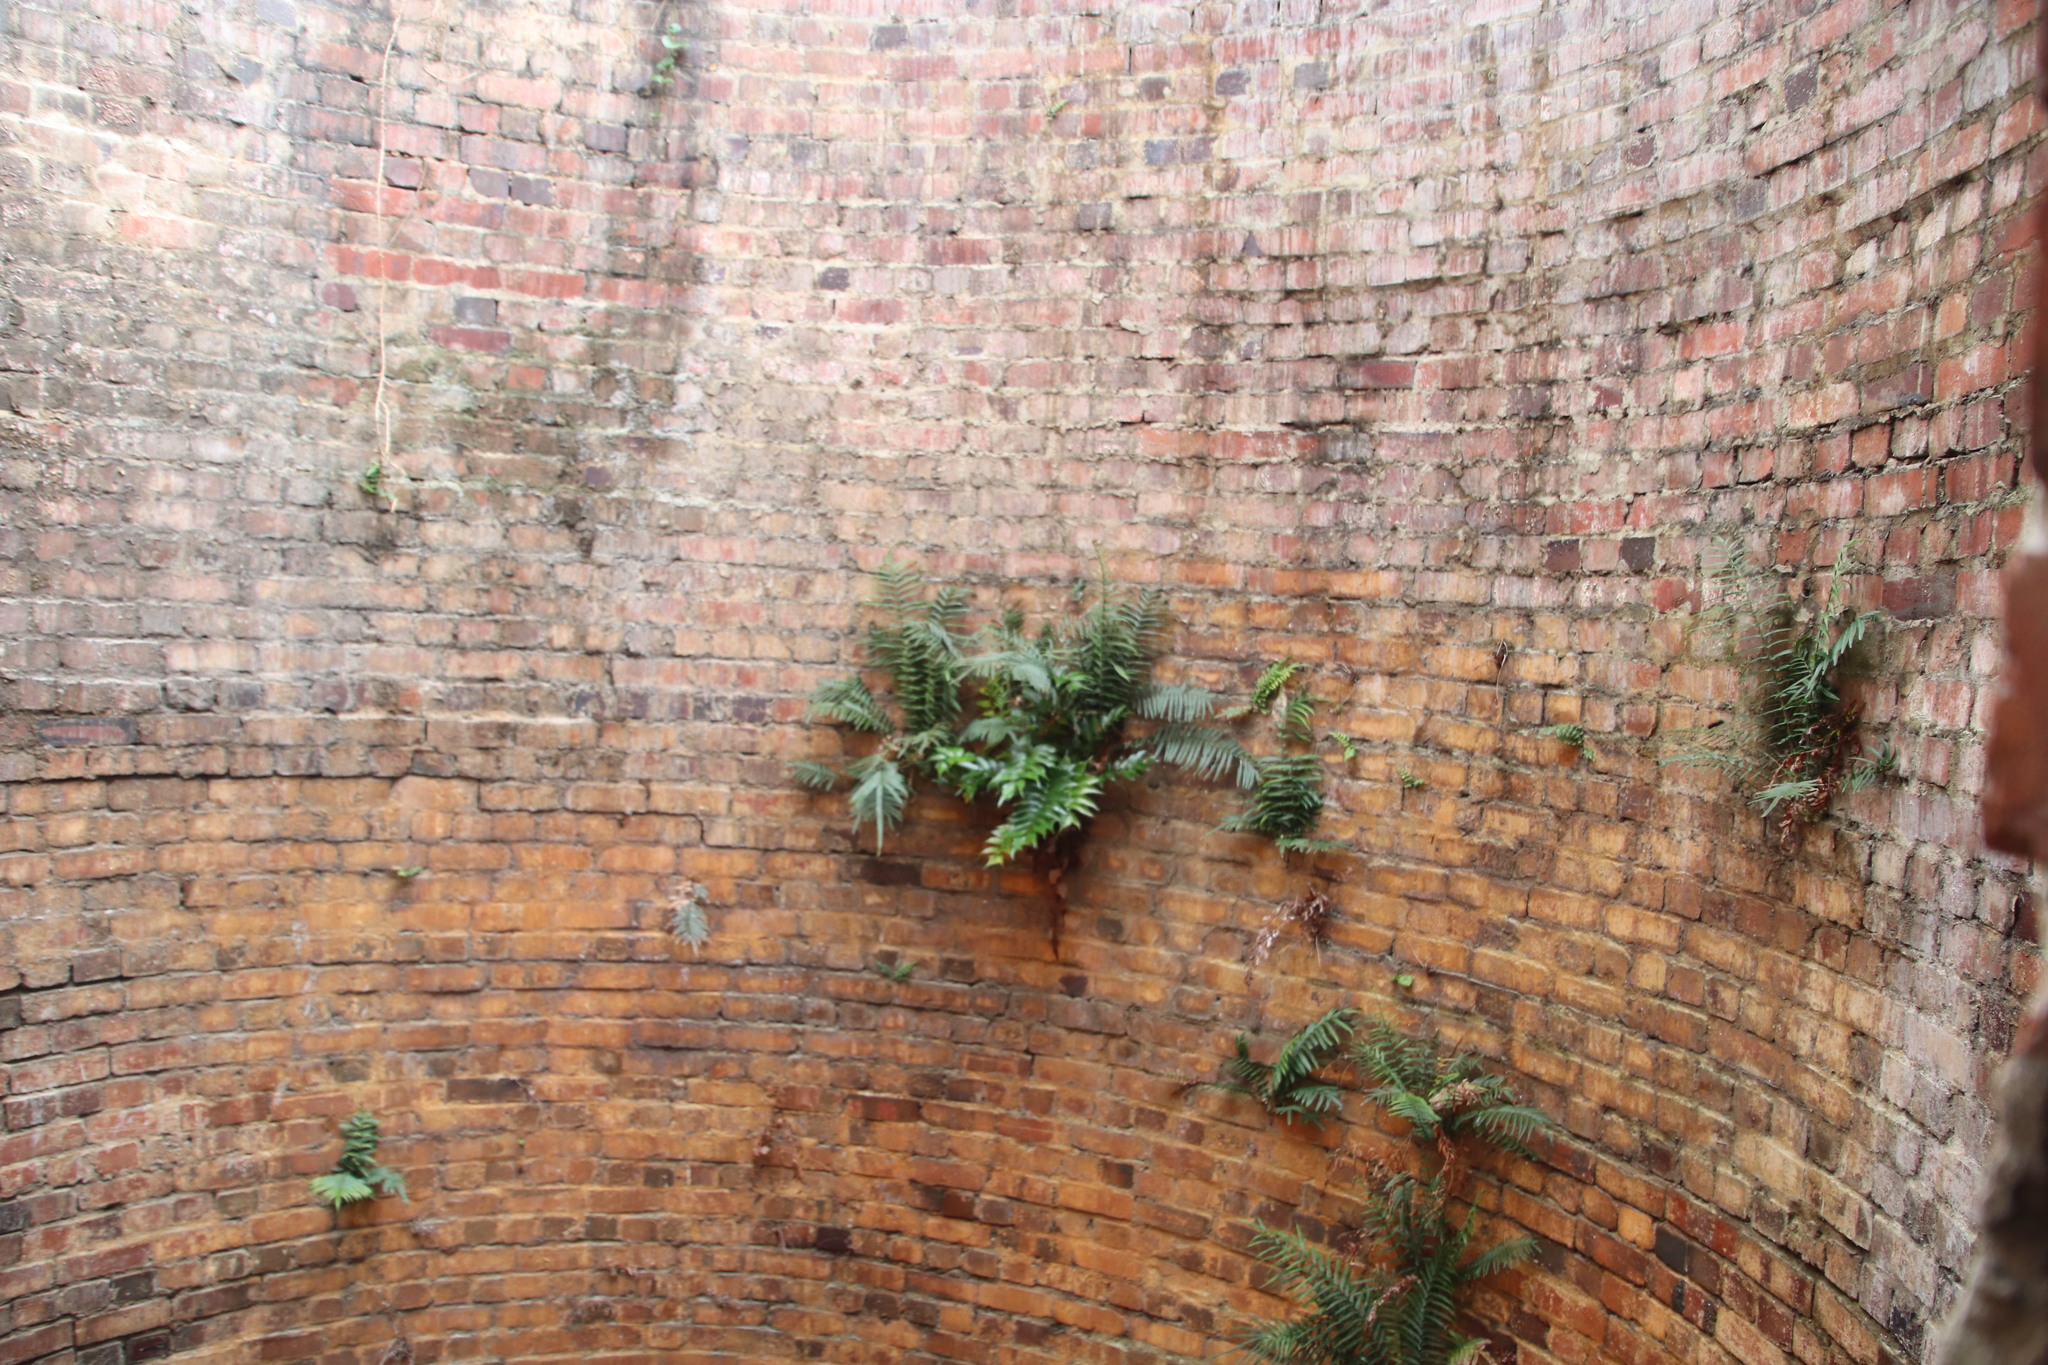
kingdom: Plantae
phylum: Tracheophyta
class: Polypodiopsida
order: Polypodiales
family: Dryopteridaceae
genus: Cyrtomium
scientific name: Cyrtomium falcatum
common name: House holly-fern
